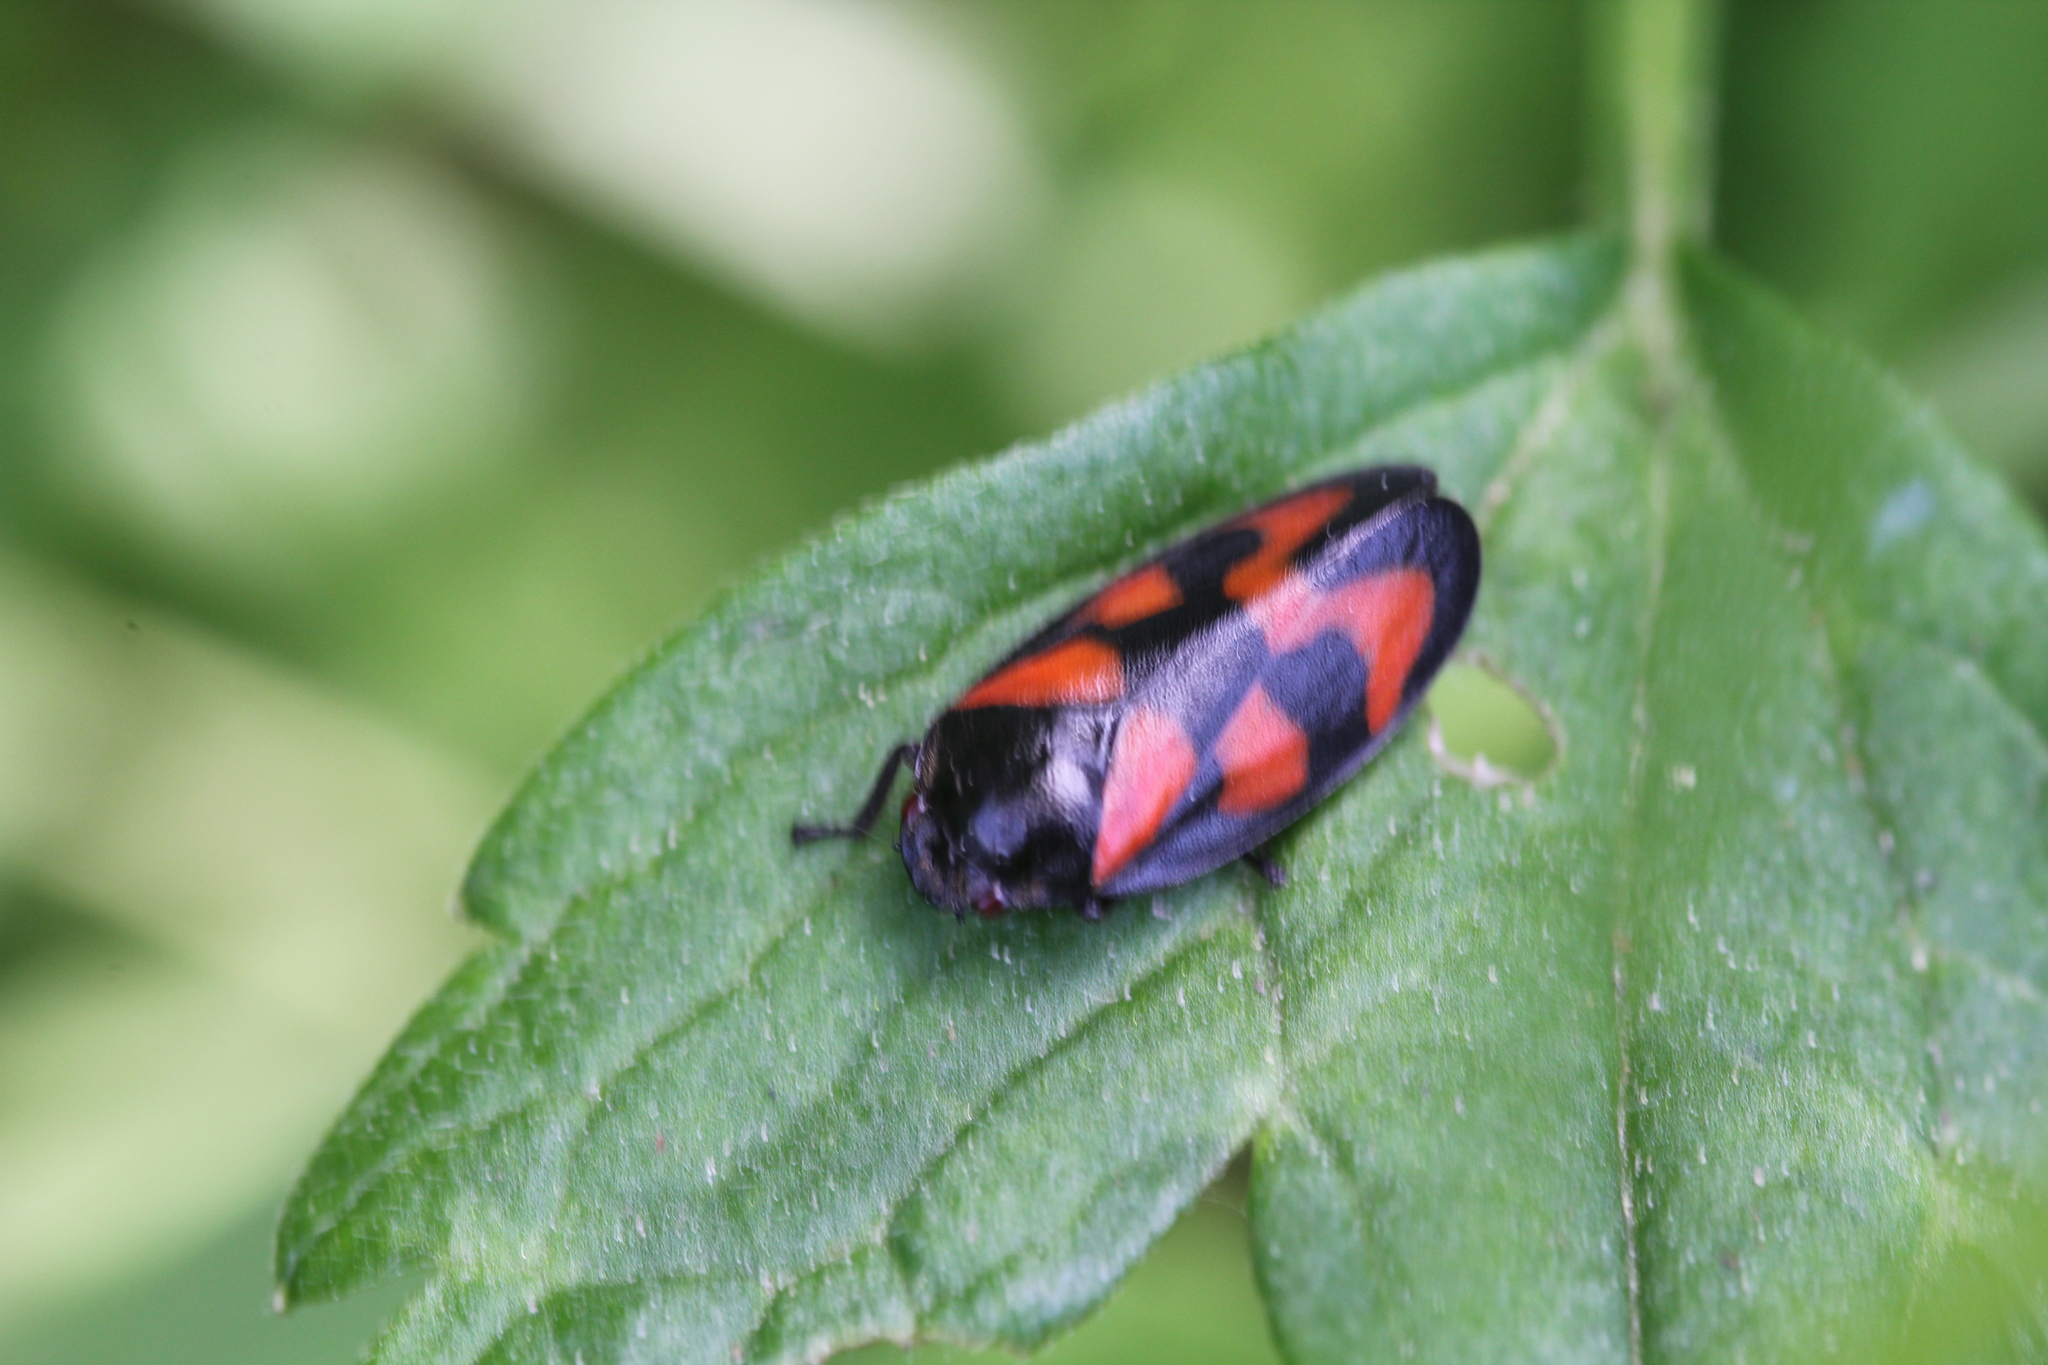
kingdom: Animalia
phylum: Arthropoda
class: Insecta
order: Hemiptera
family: Cercopidae
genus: Cercopis
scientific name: Cercopis vulnerata
